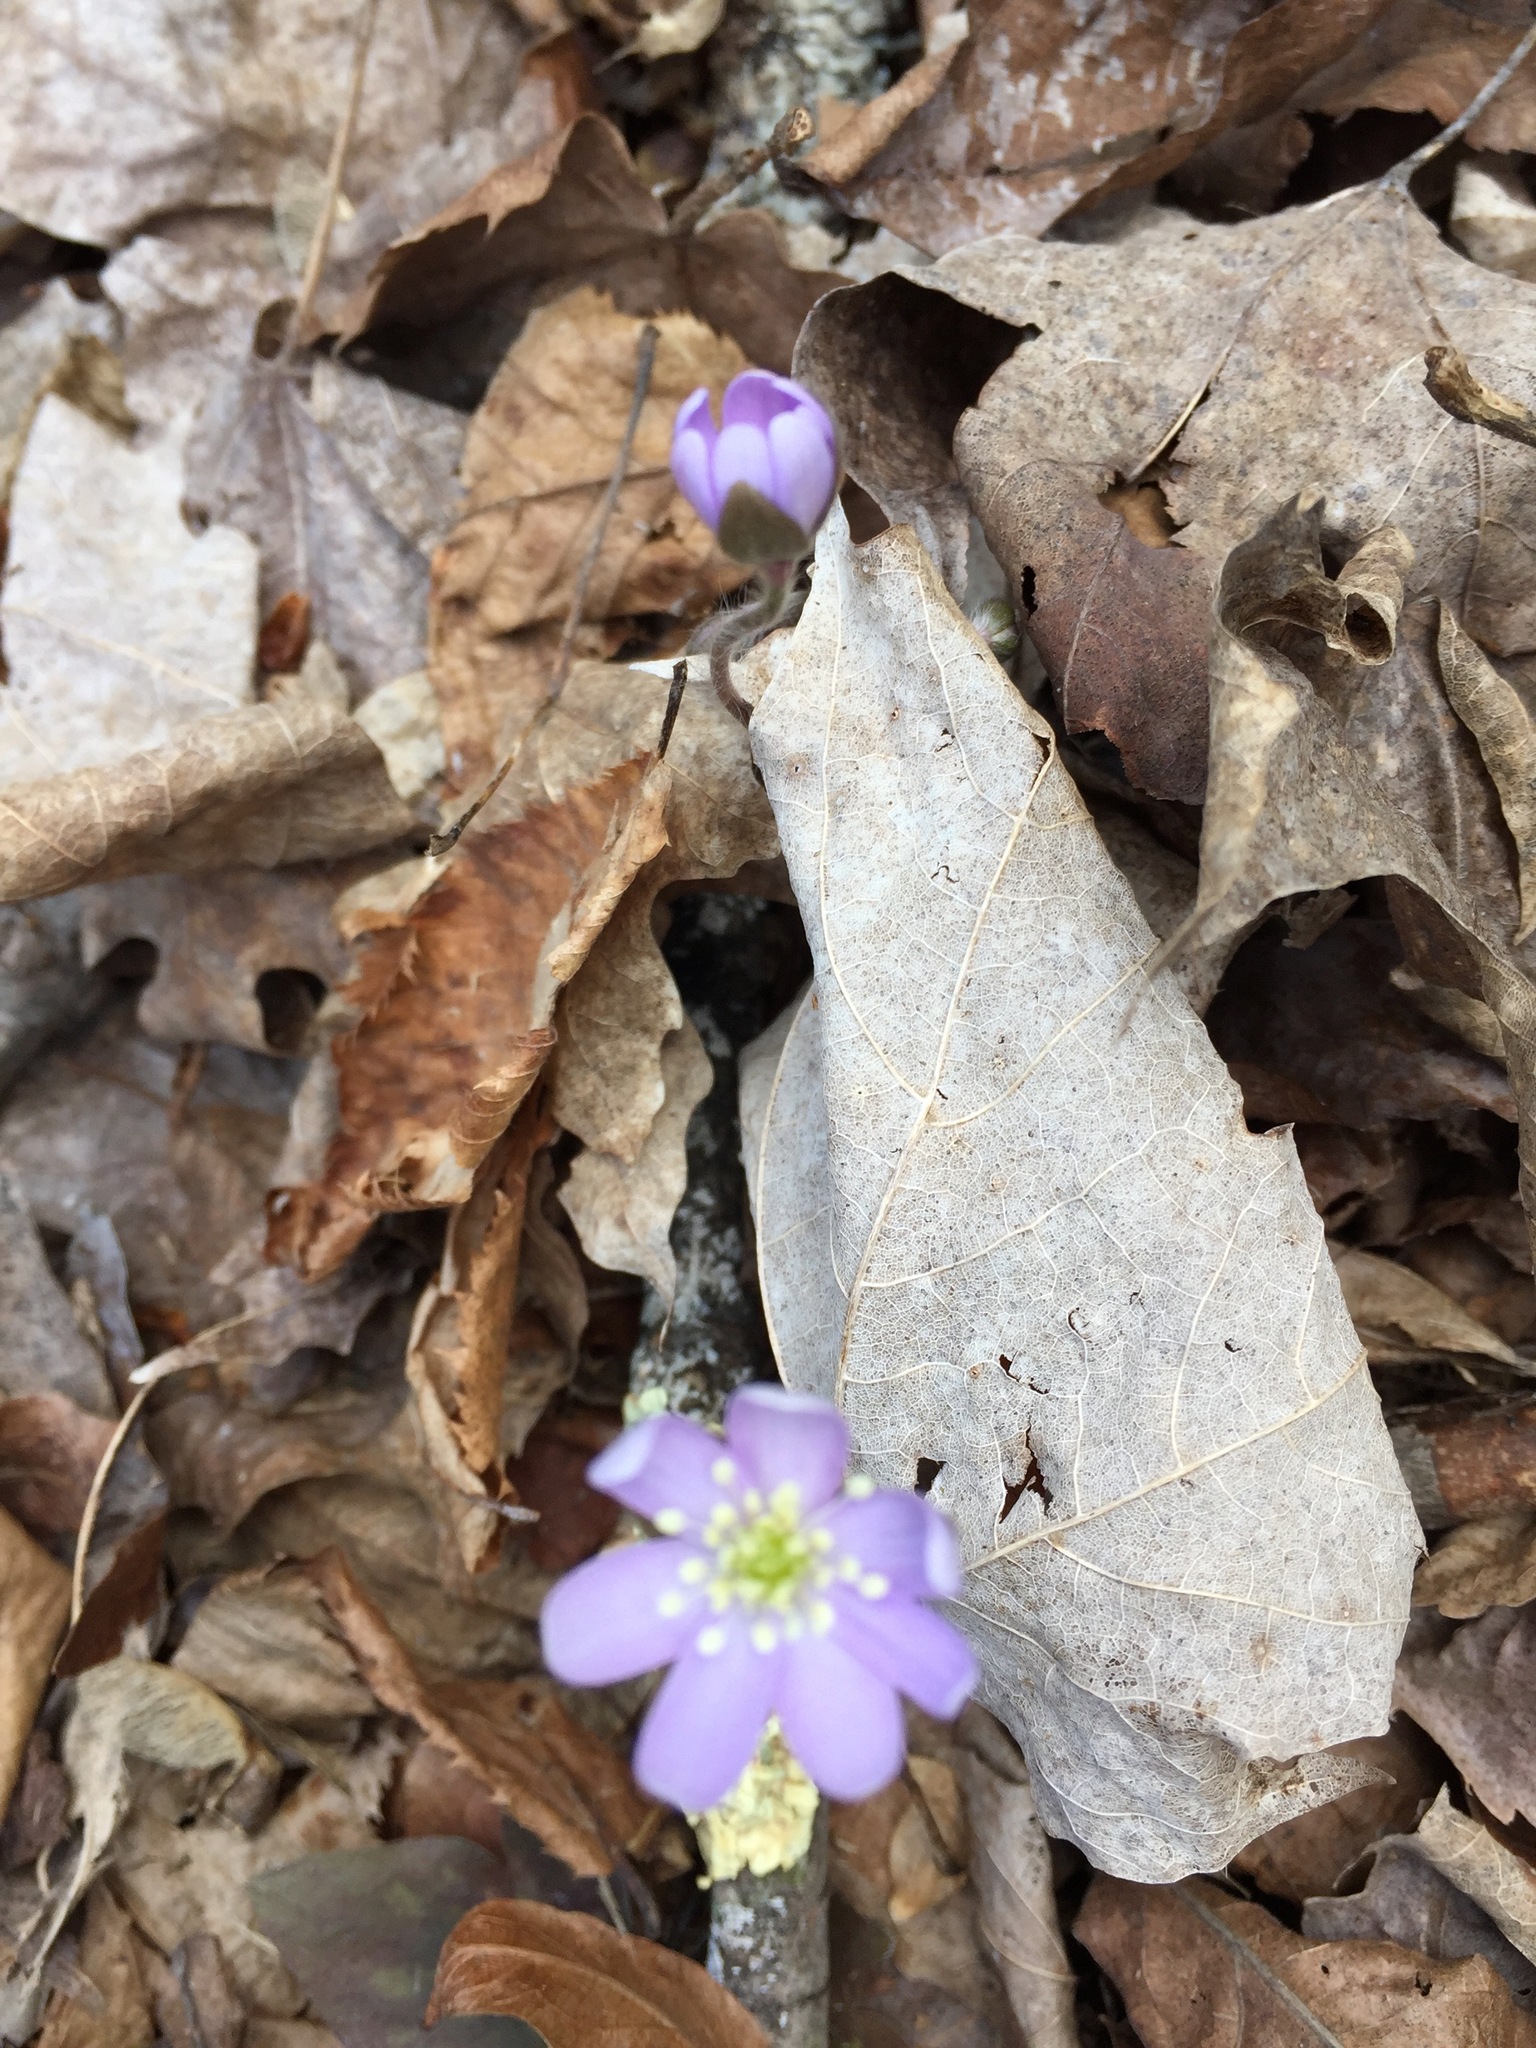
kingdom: Plantae
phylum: Tracheophyta
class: Magnoliopsida
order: Ranunculales
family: Ranunculaceae
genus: Hepatica
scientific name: Hepatica acutiloba
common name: Sharp-lobed hepatica
